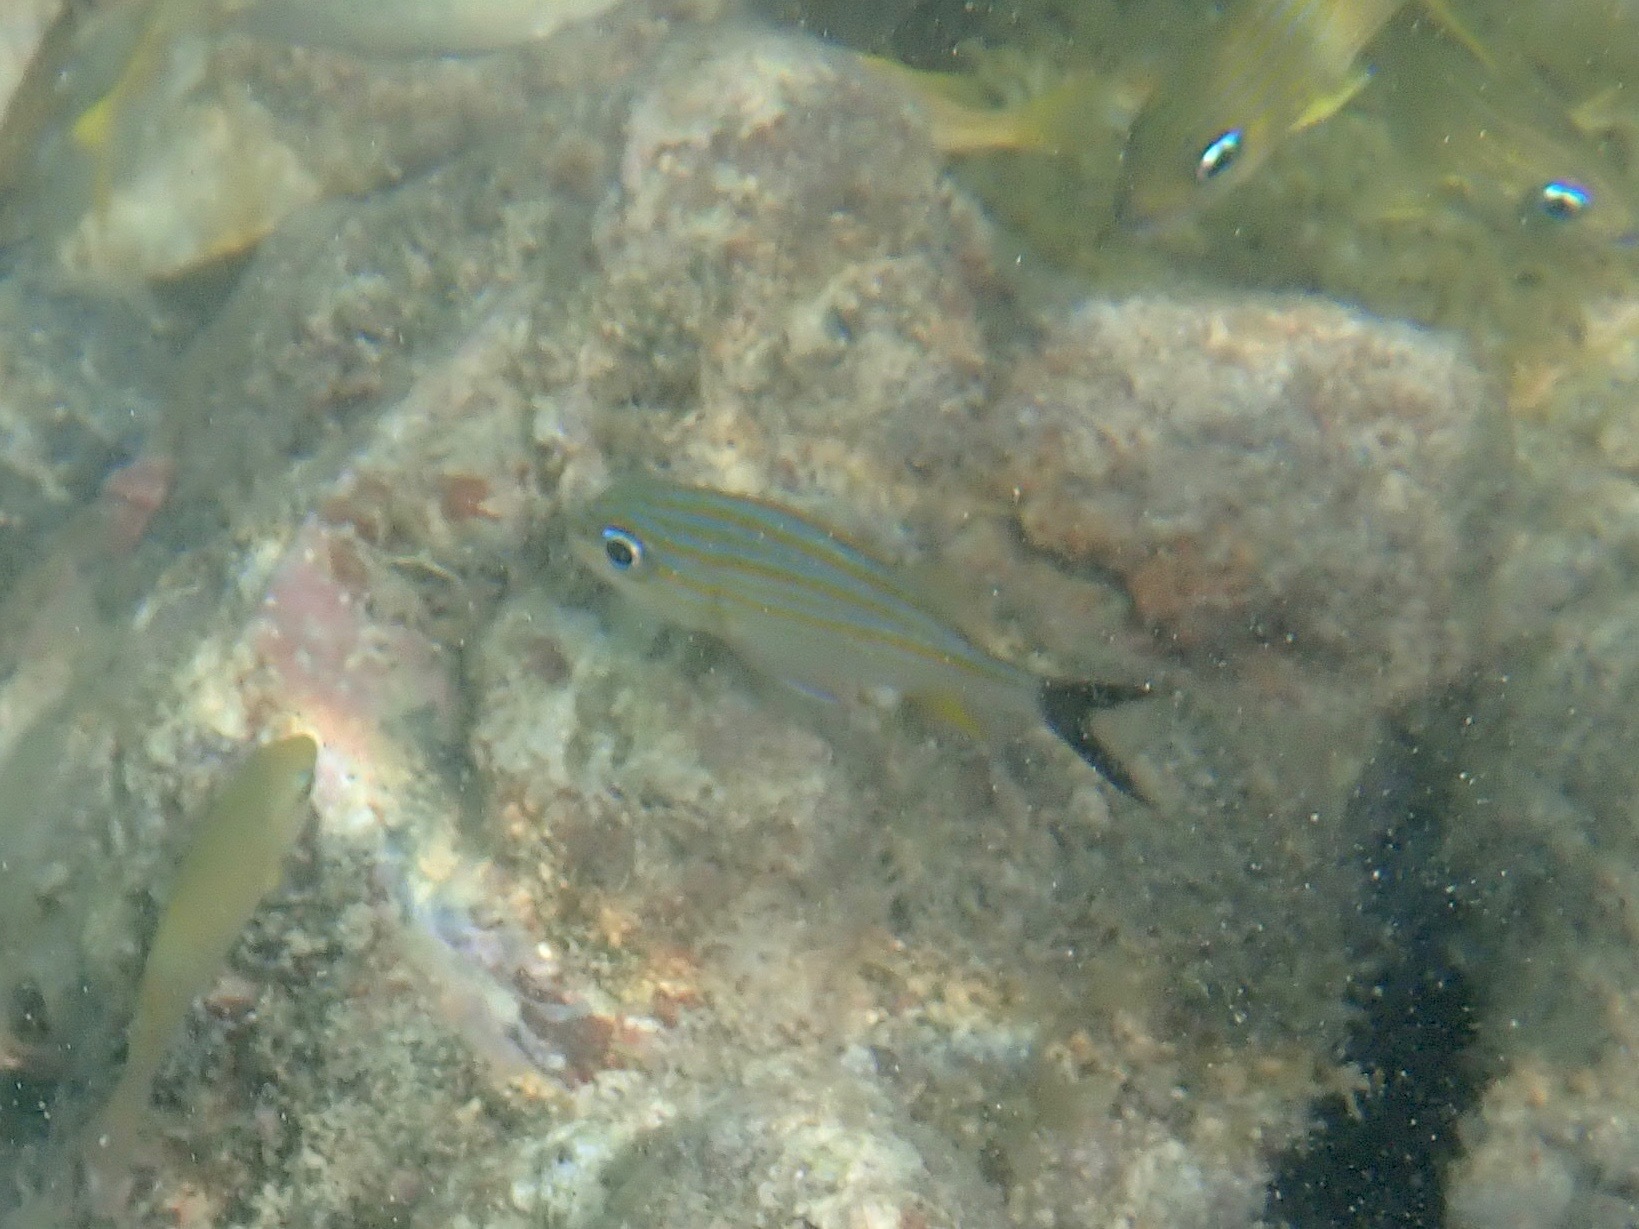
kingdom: Animalia
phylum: Chordata
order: Perciformes
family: Haemulidae
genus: Haemulon
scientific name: Haemulon carbonarium
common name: Caesar grunt
